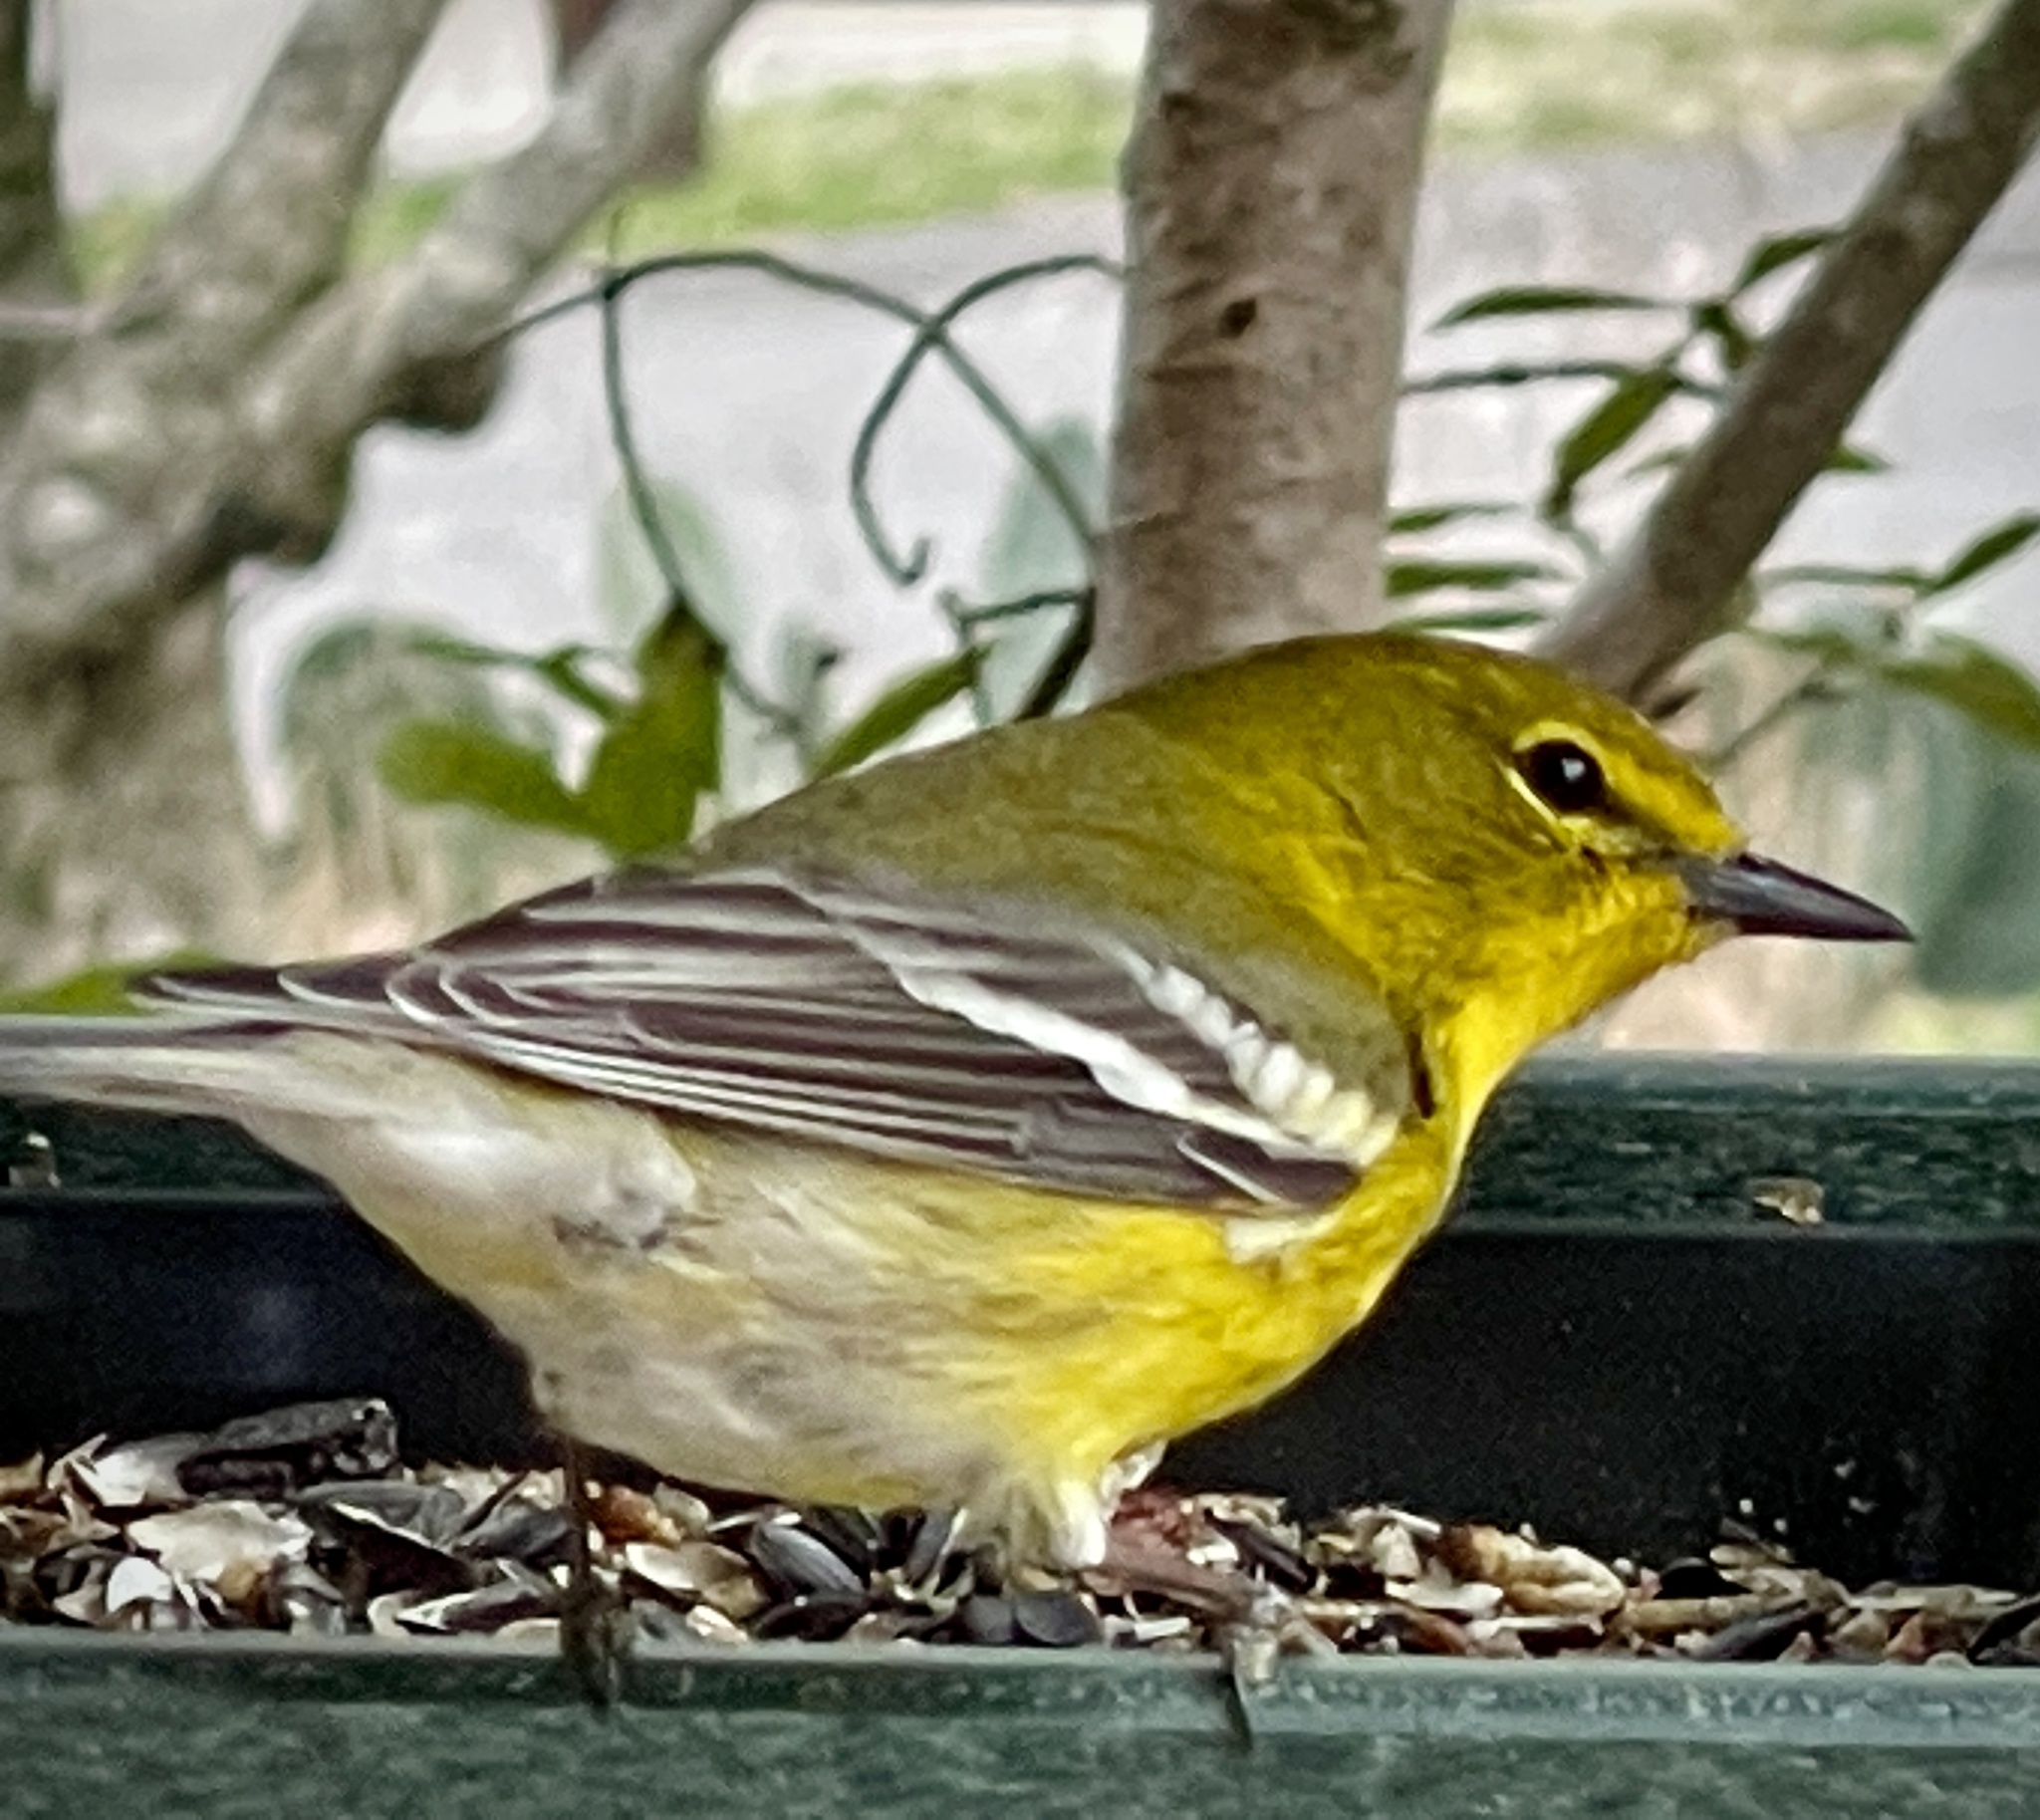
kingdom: Animalia
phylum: Chordata
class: Aves
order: Passeriformes
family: Parulidae
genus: Setophaga
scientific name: Setophaga pinus
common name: Pine warbler
